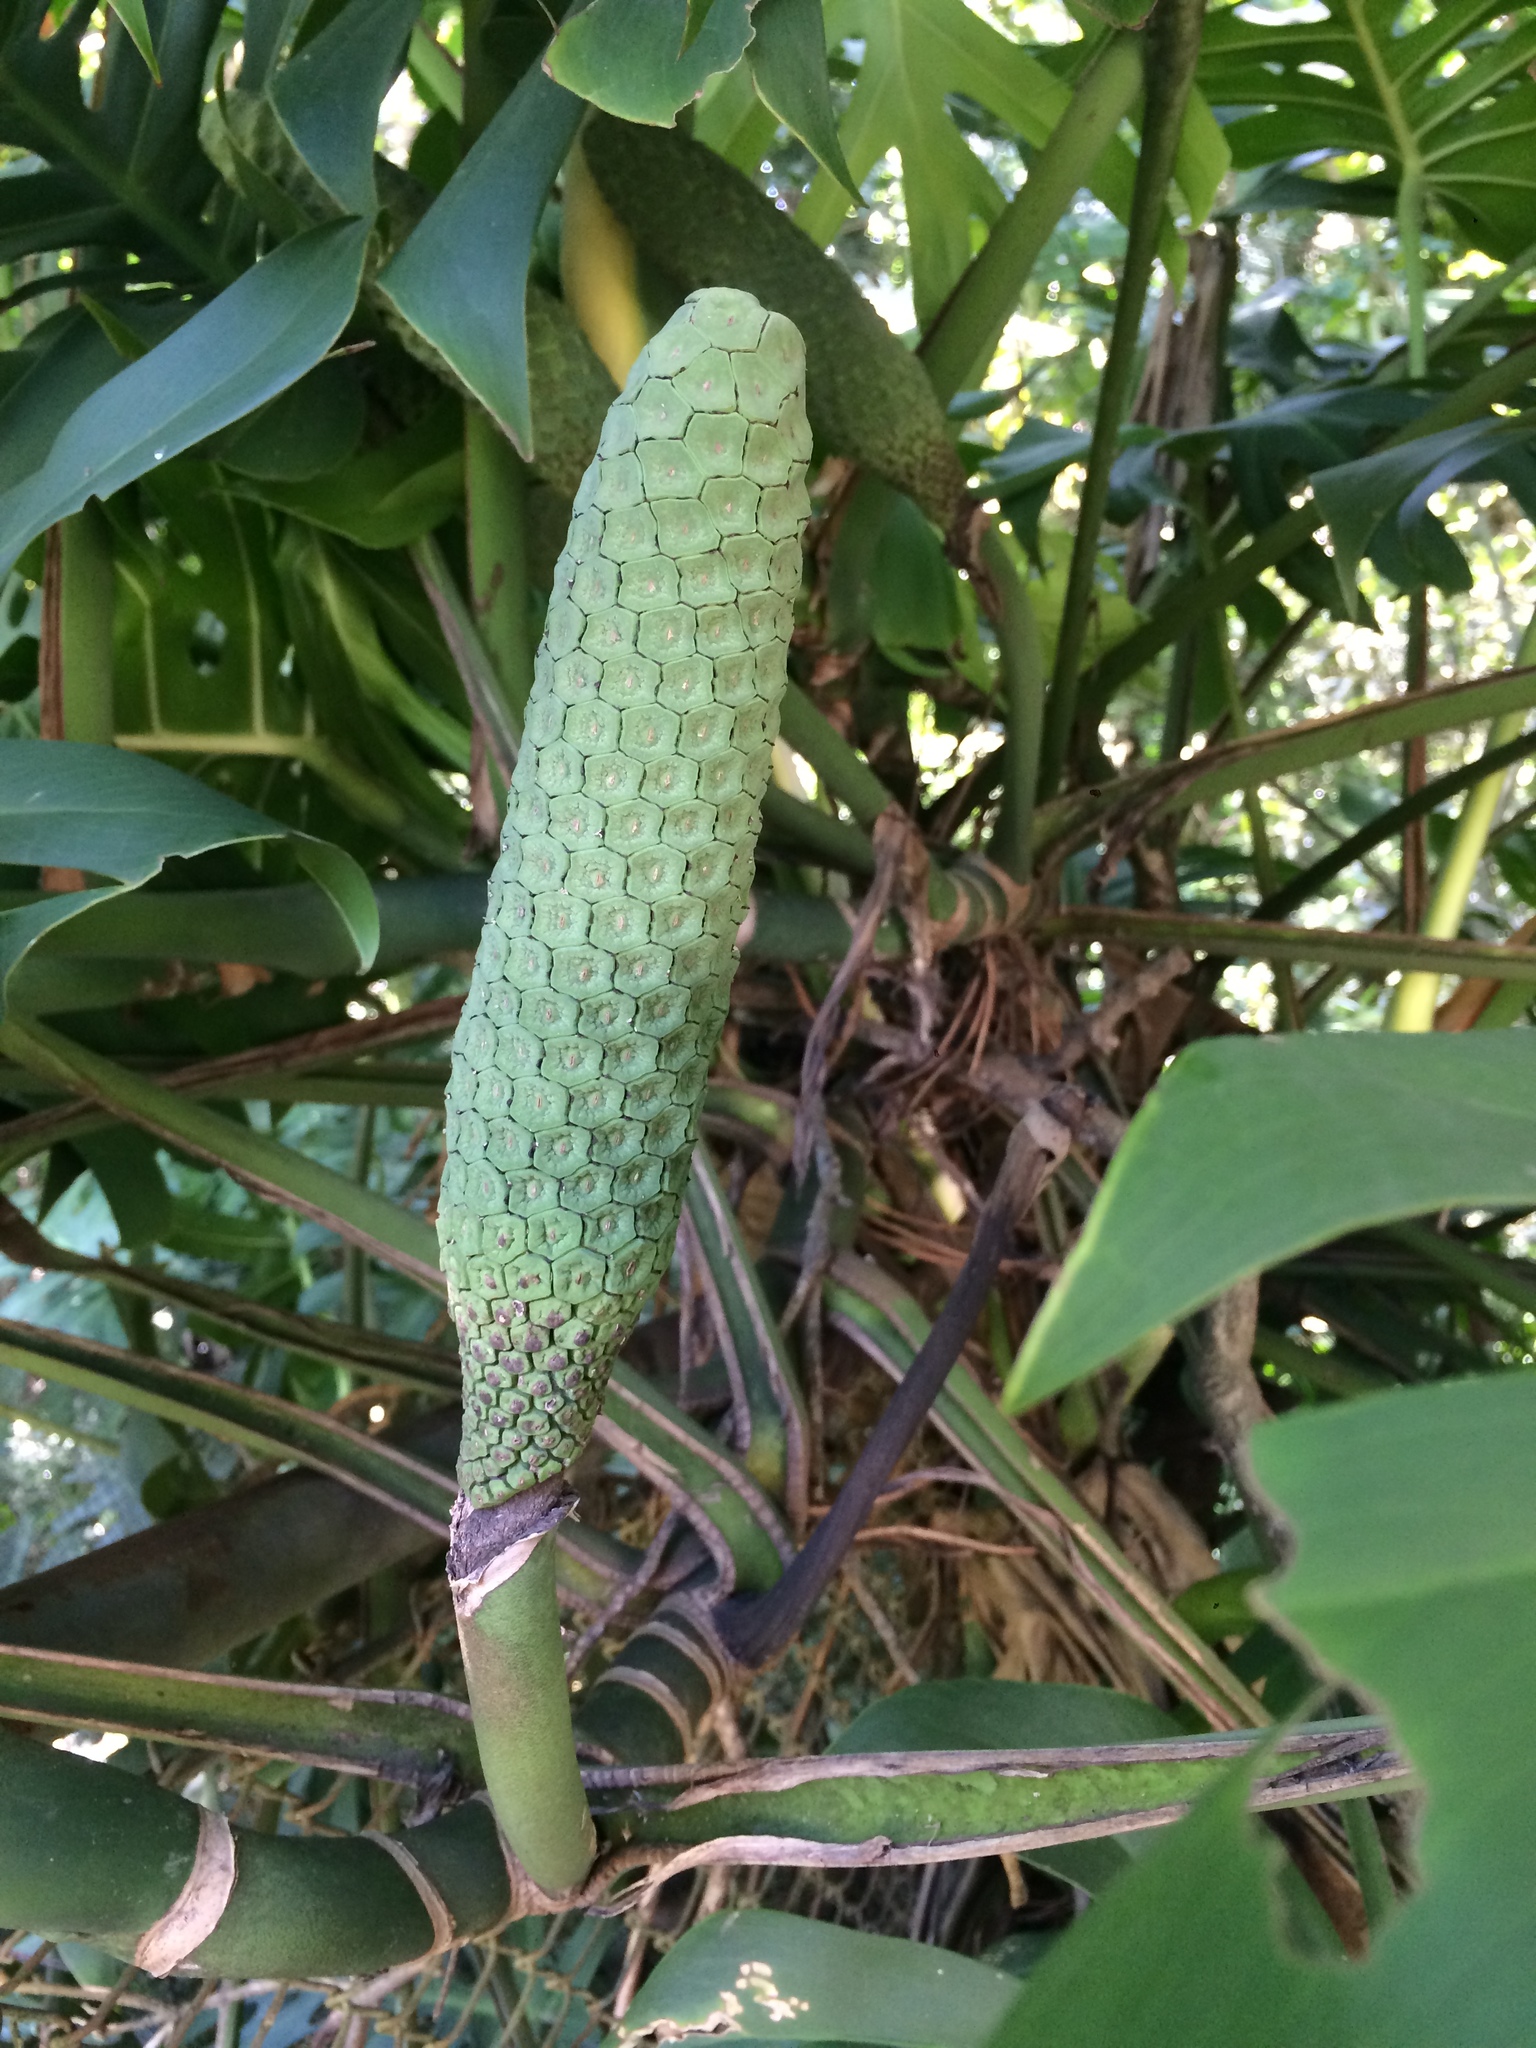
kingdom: Plantae
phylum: Tracheophyta
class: Liliopsida
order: Alismatales
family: Araceae
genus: Monstera
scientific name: Monstera deliciosa
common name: Cut-leaf-philodendron
